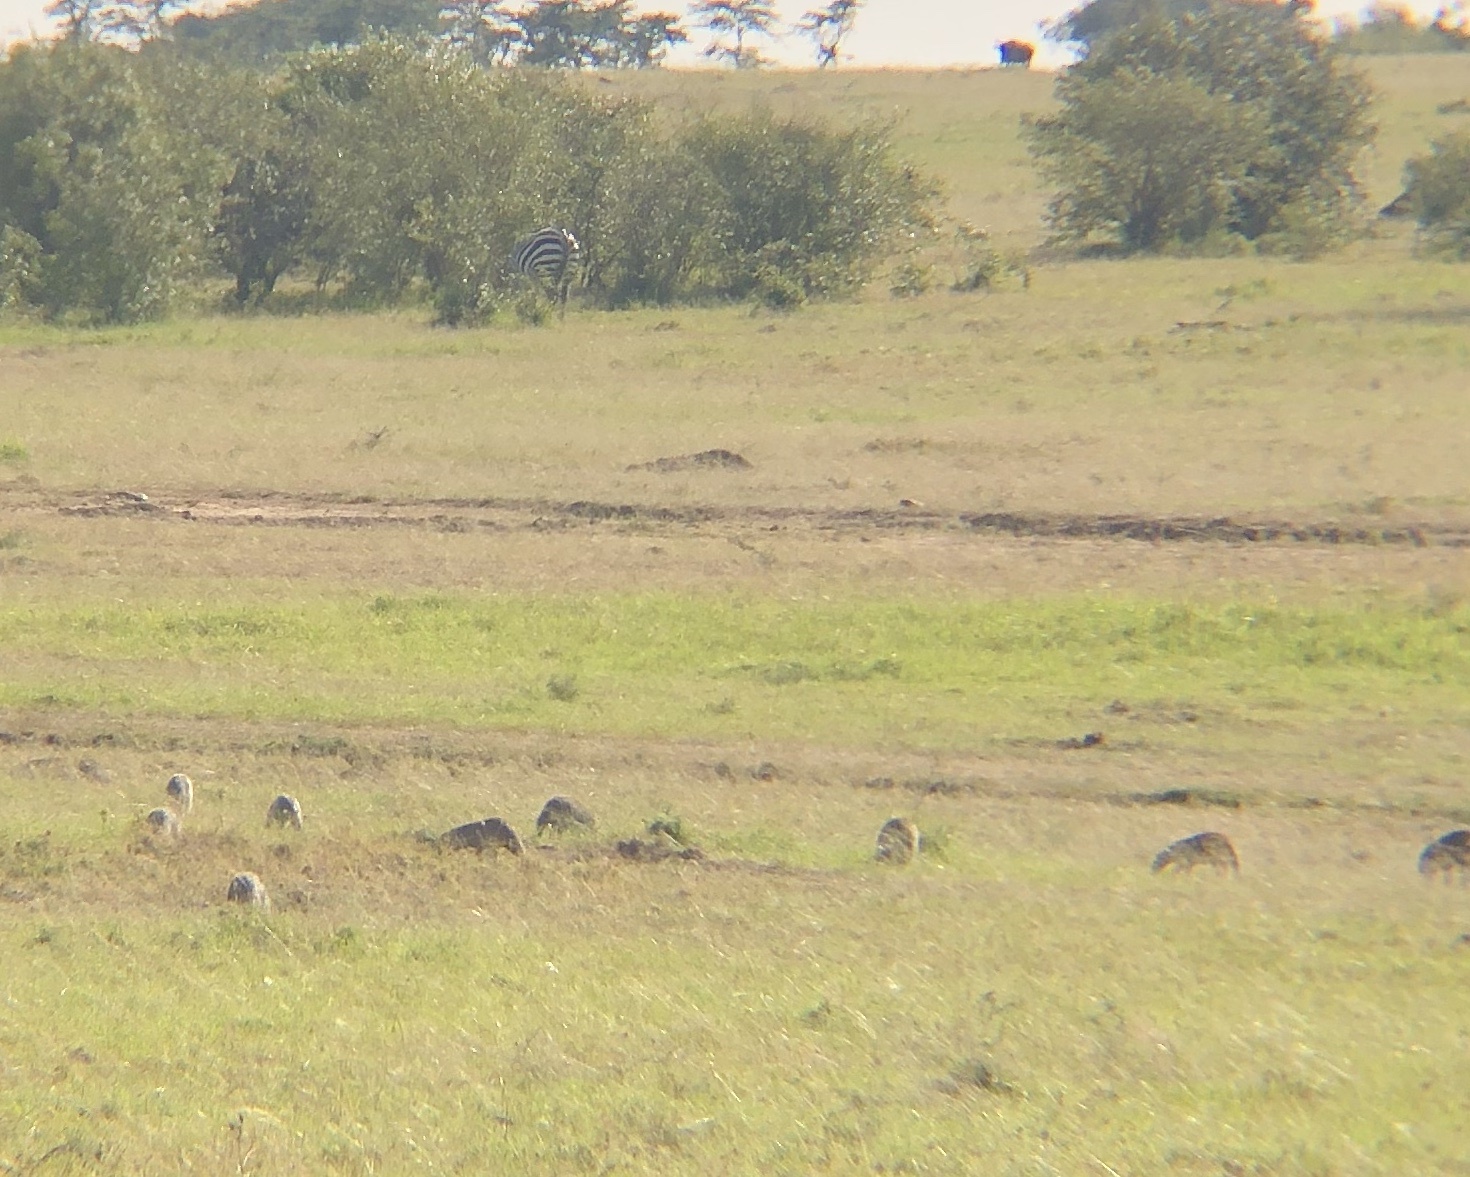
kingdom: Animalia
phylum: Chordata
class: Mammalia
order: Carnivora
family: Herpestidae
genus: Mungos
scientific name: Mungos mungo
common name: Banded mongoose
